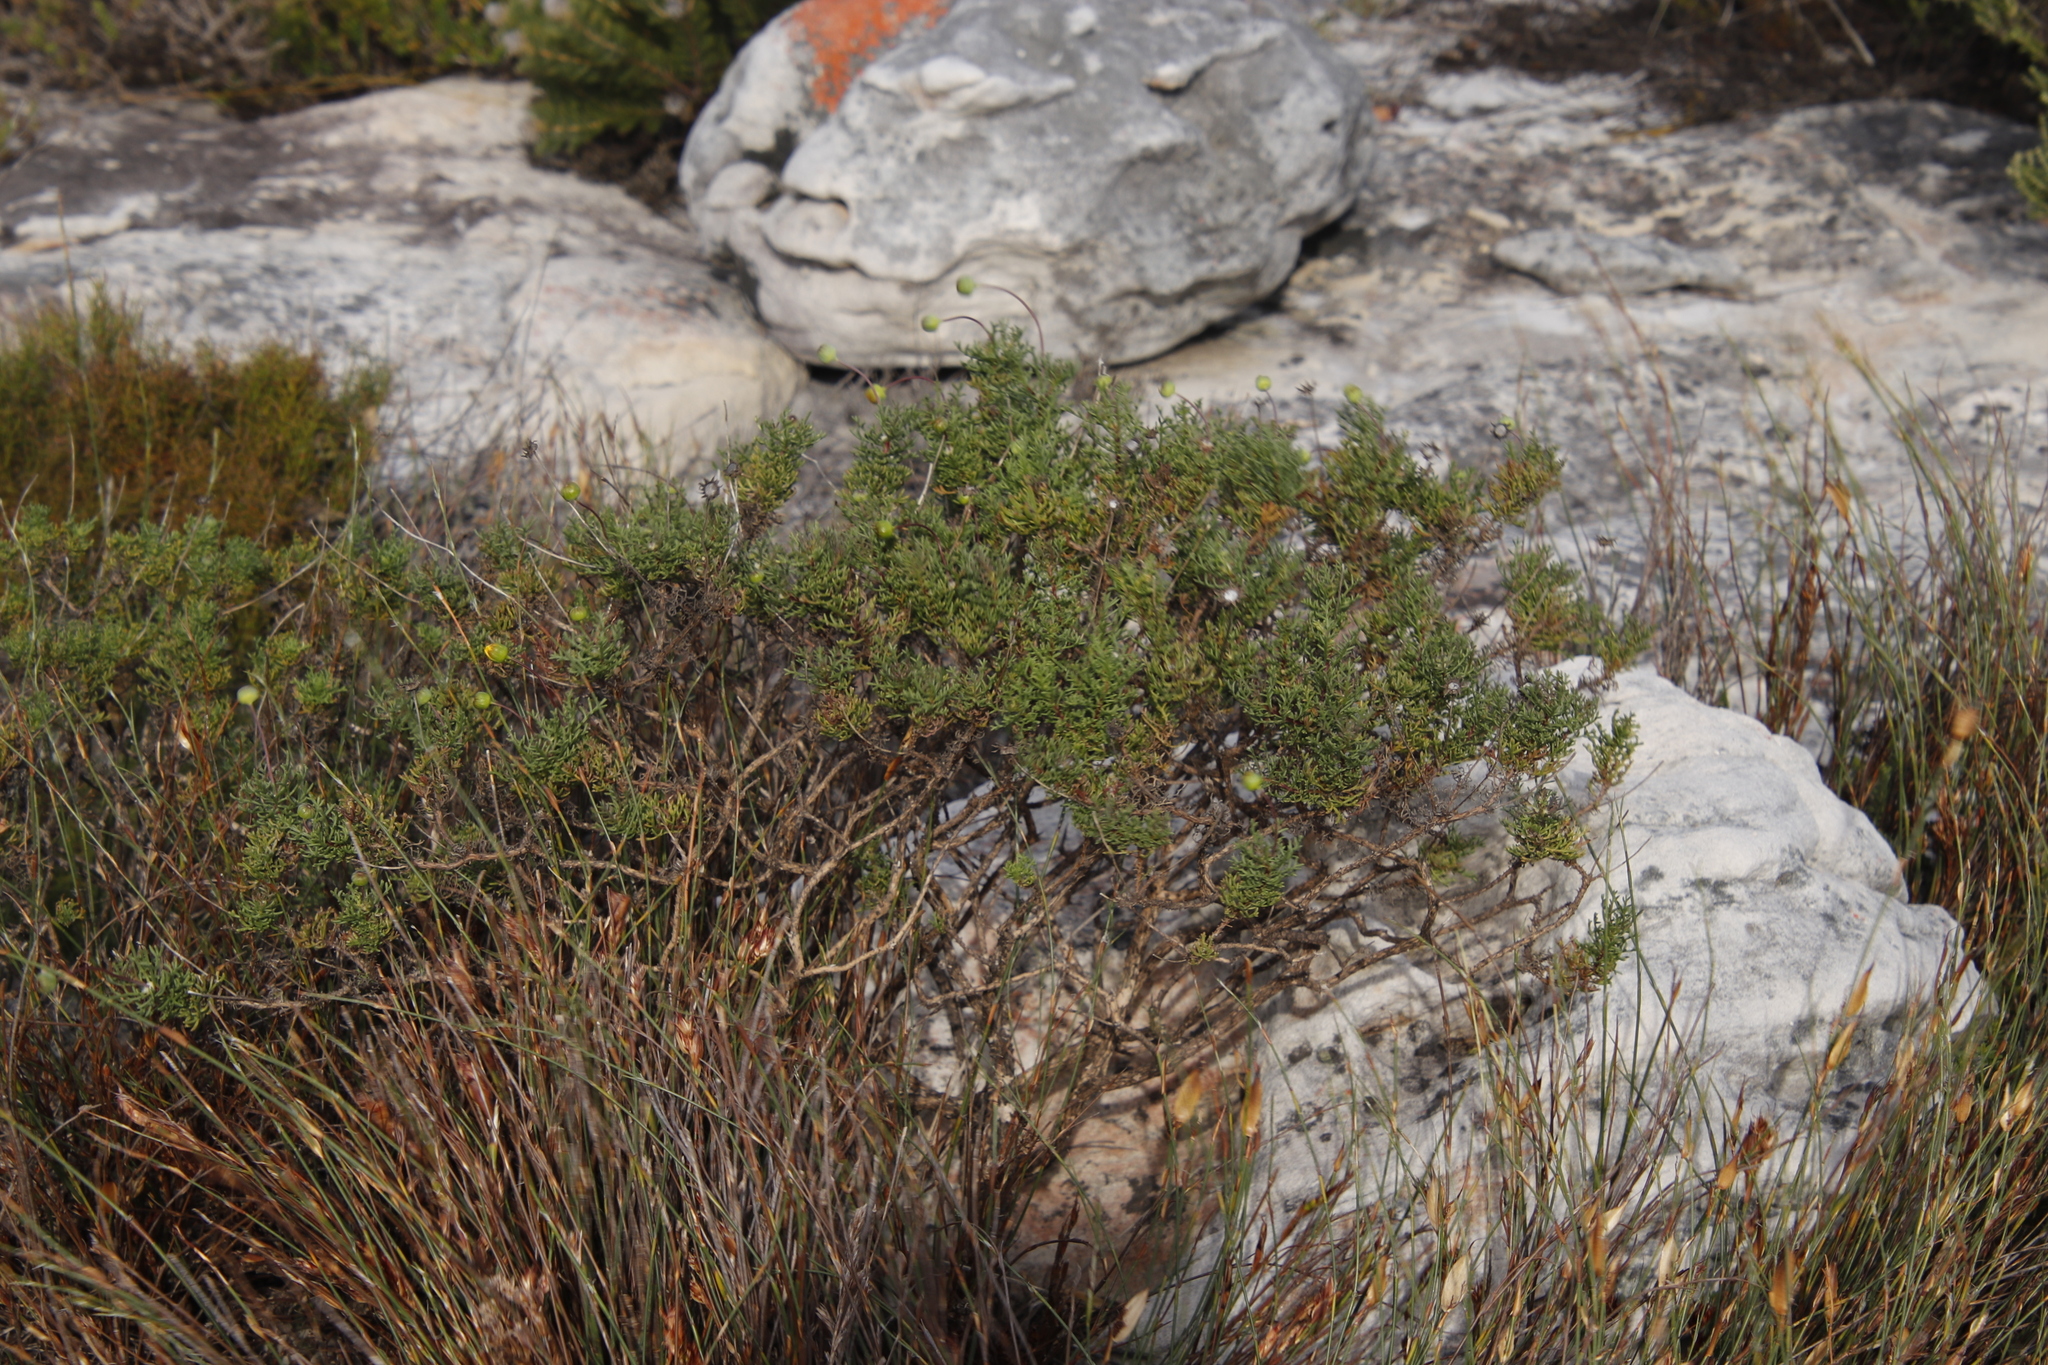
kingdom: Plantae
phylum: Tracheophyta
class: Magnoliopsida
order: Asterales
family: Asteraceae
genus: Euryops
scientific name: Euryops abrotanifolius
